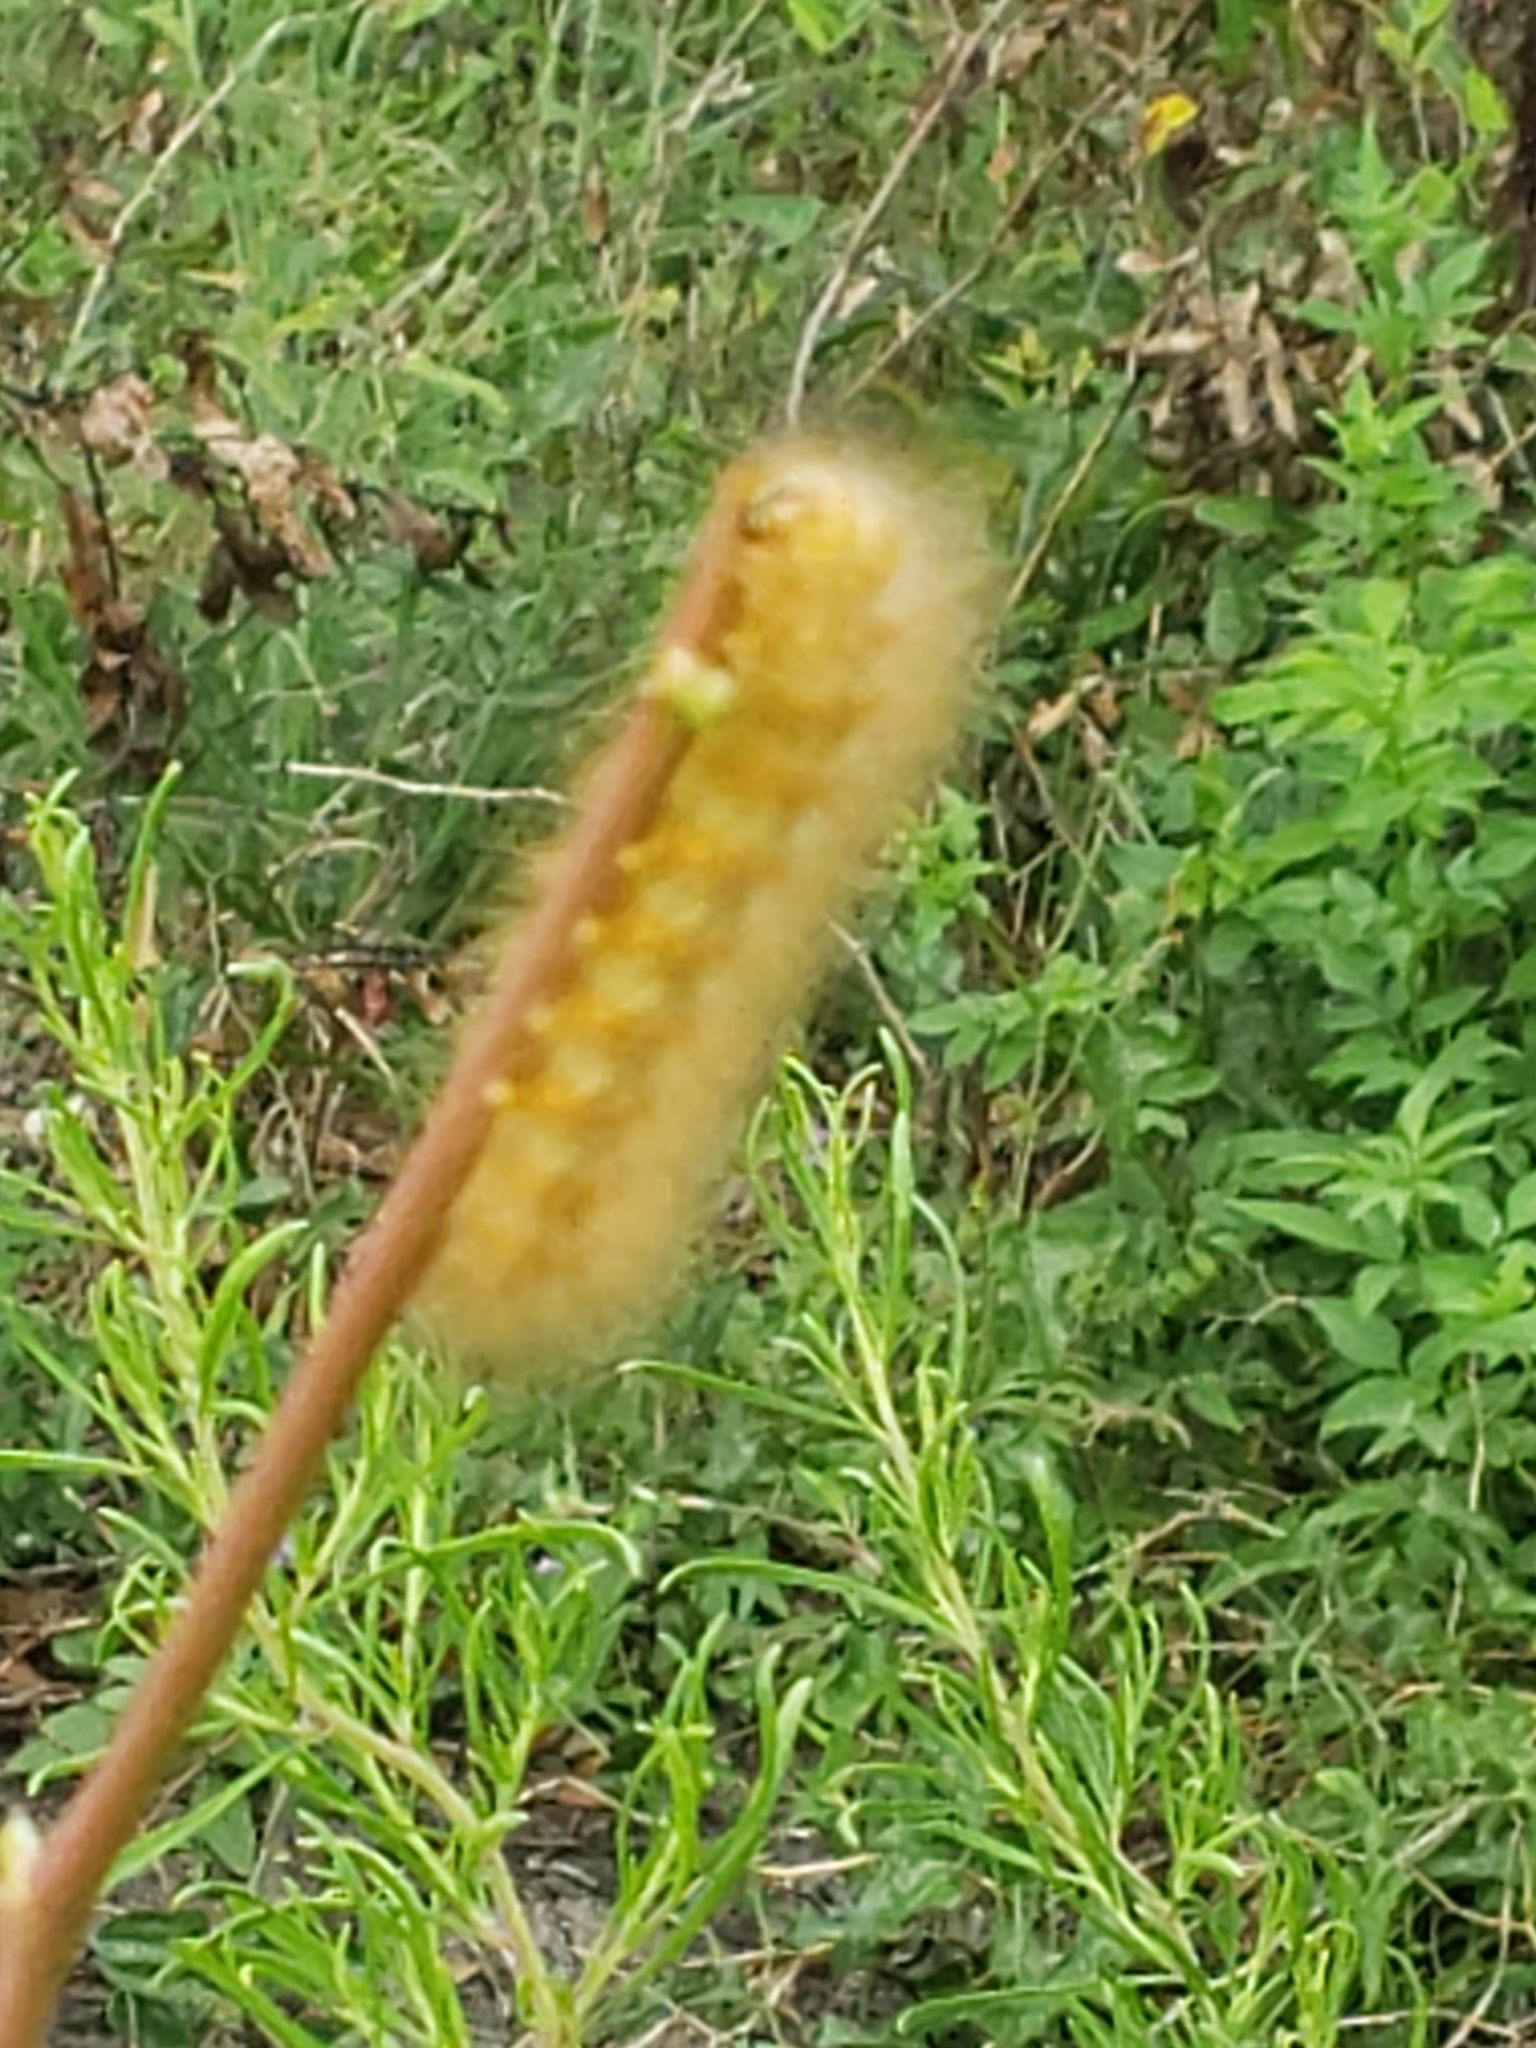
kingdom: Animalia
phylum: Arthropoda
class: Insecta
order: Lepidoptera
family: Erebidae
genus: Estigmene
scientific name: Estigmene acrea
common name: Salt marsh moth
